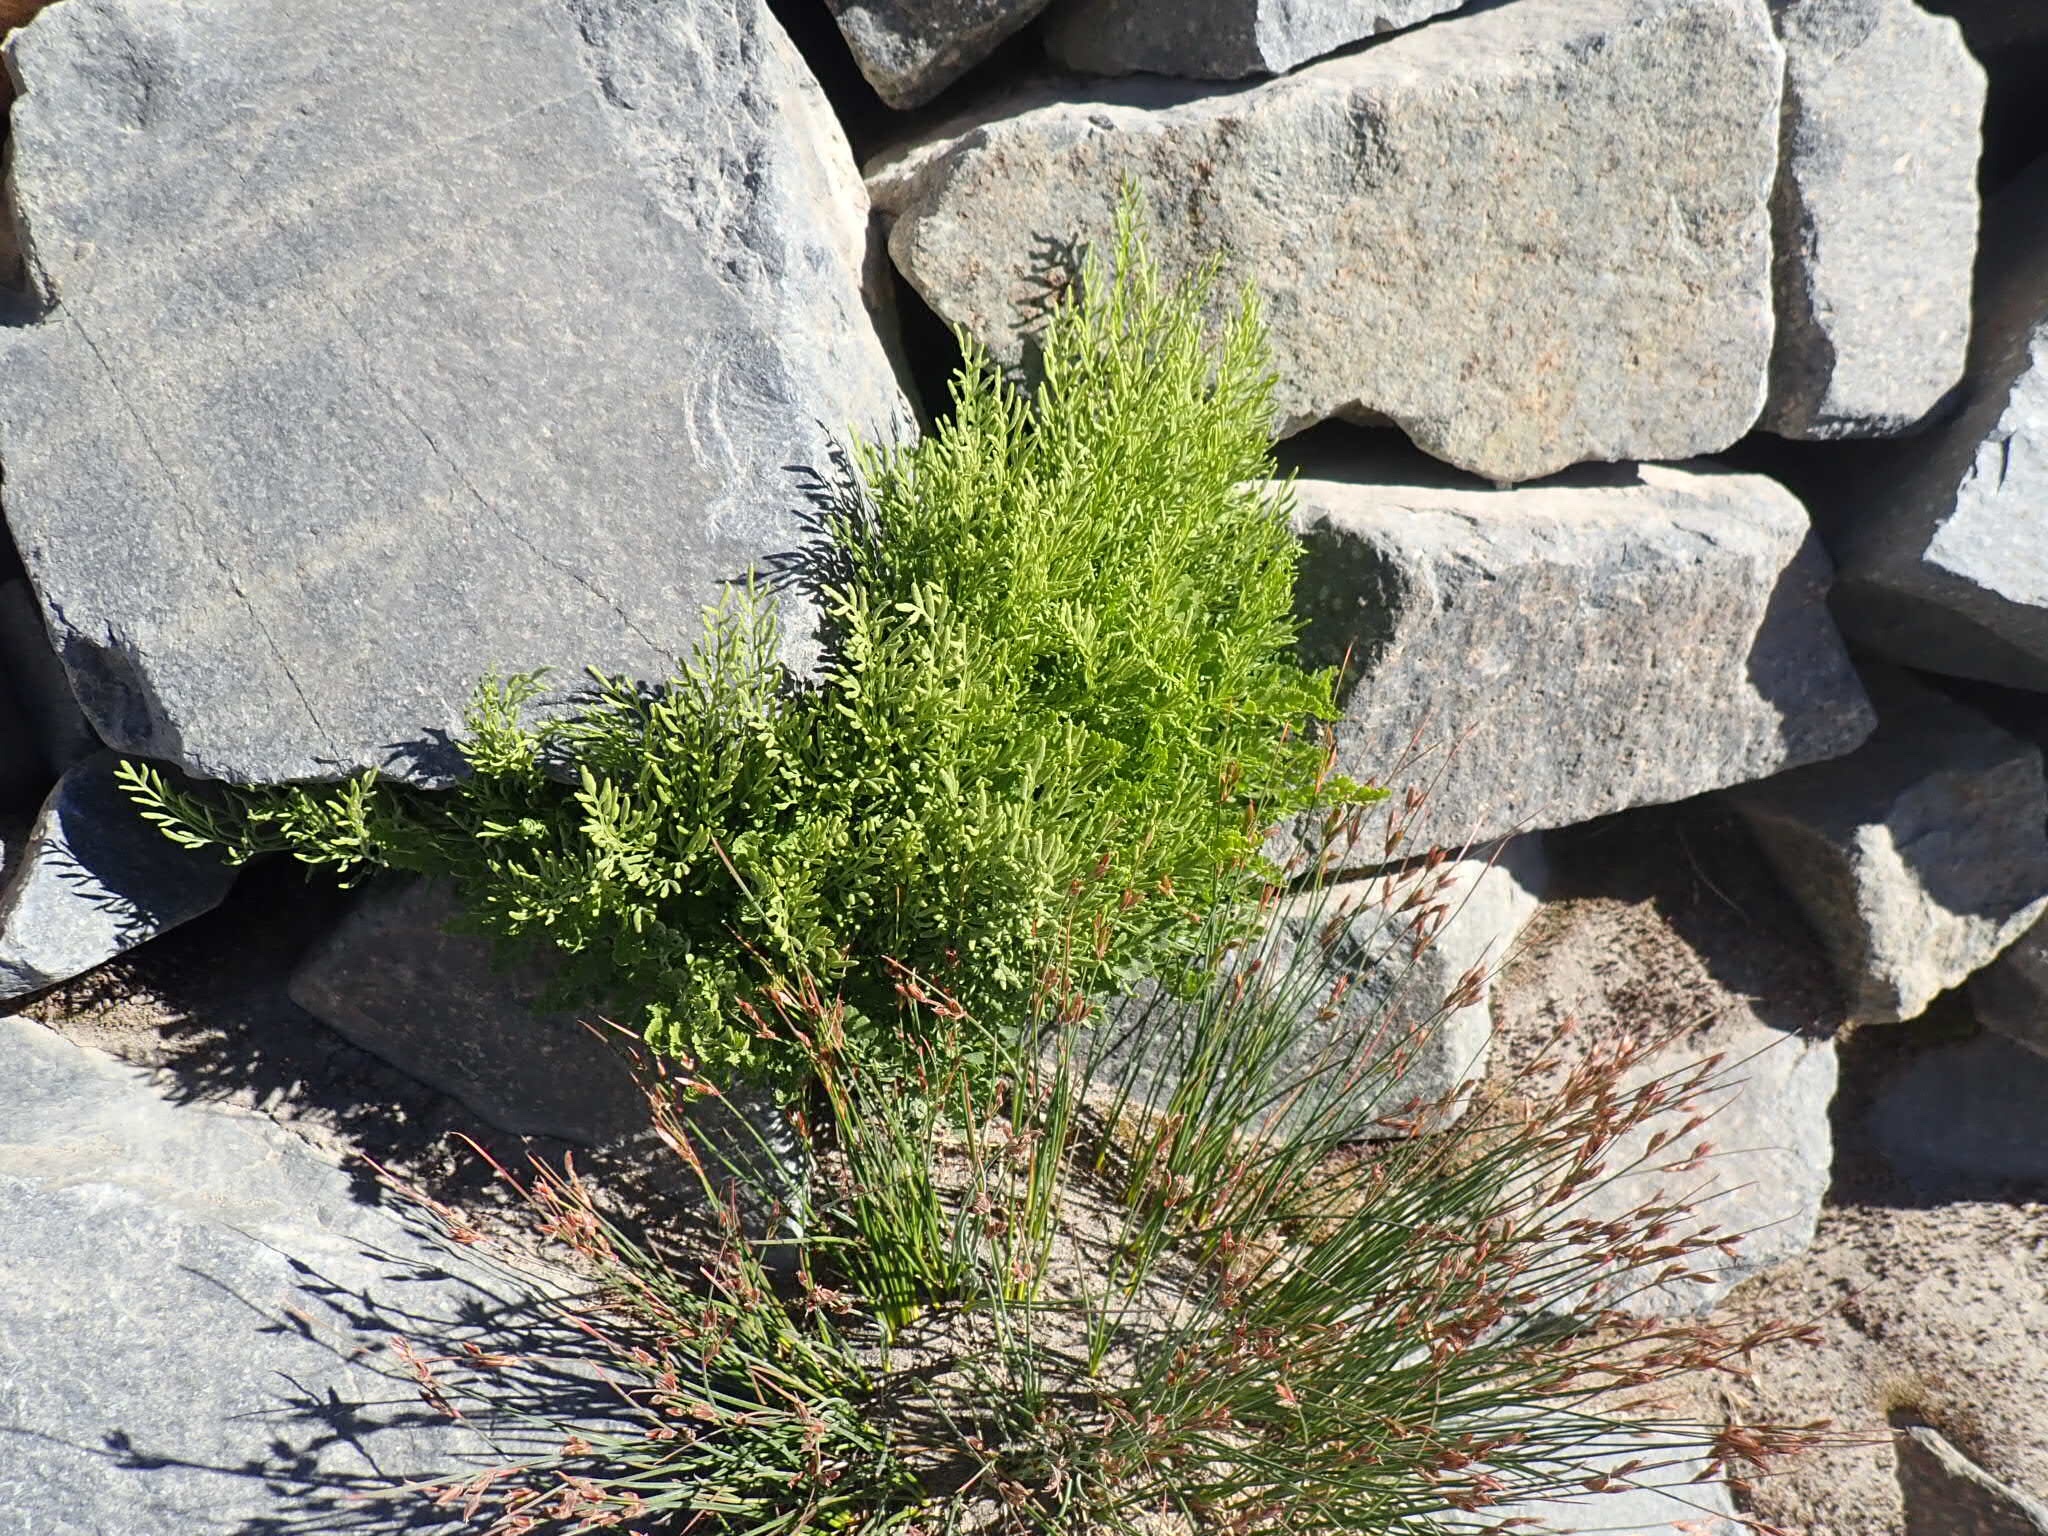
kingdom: Plantae
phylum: Tracheophyta
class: Polypodiopsida
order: Polypodiales
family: Pteridaceae
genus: Cryptogramma
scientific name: Cryptogramma cascadensis
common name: Cascade parsley fern
